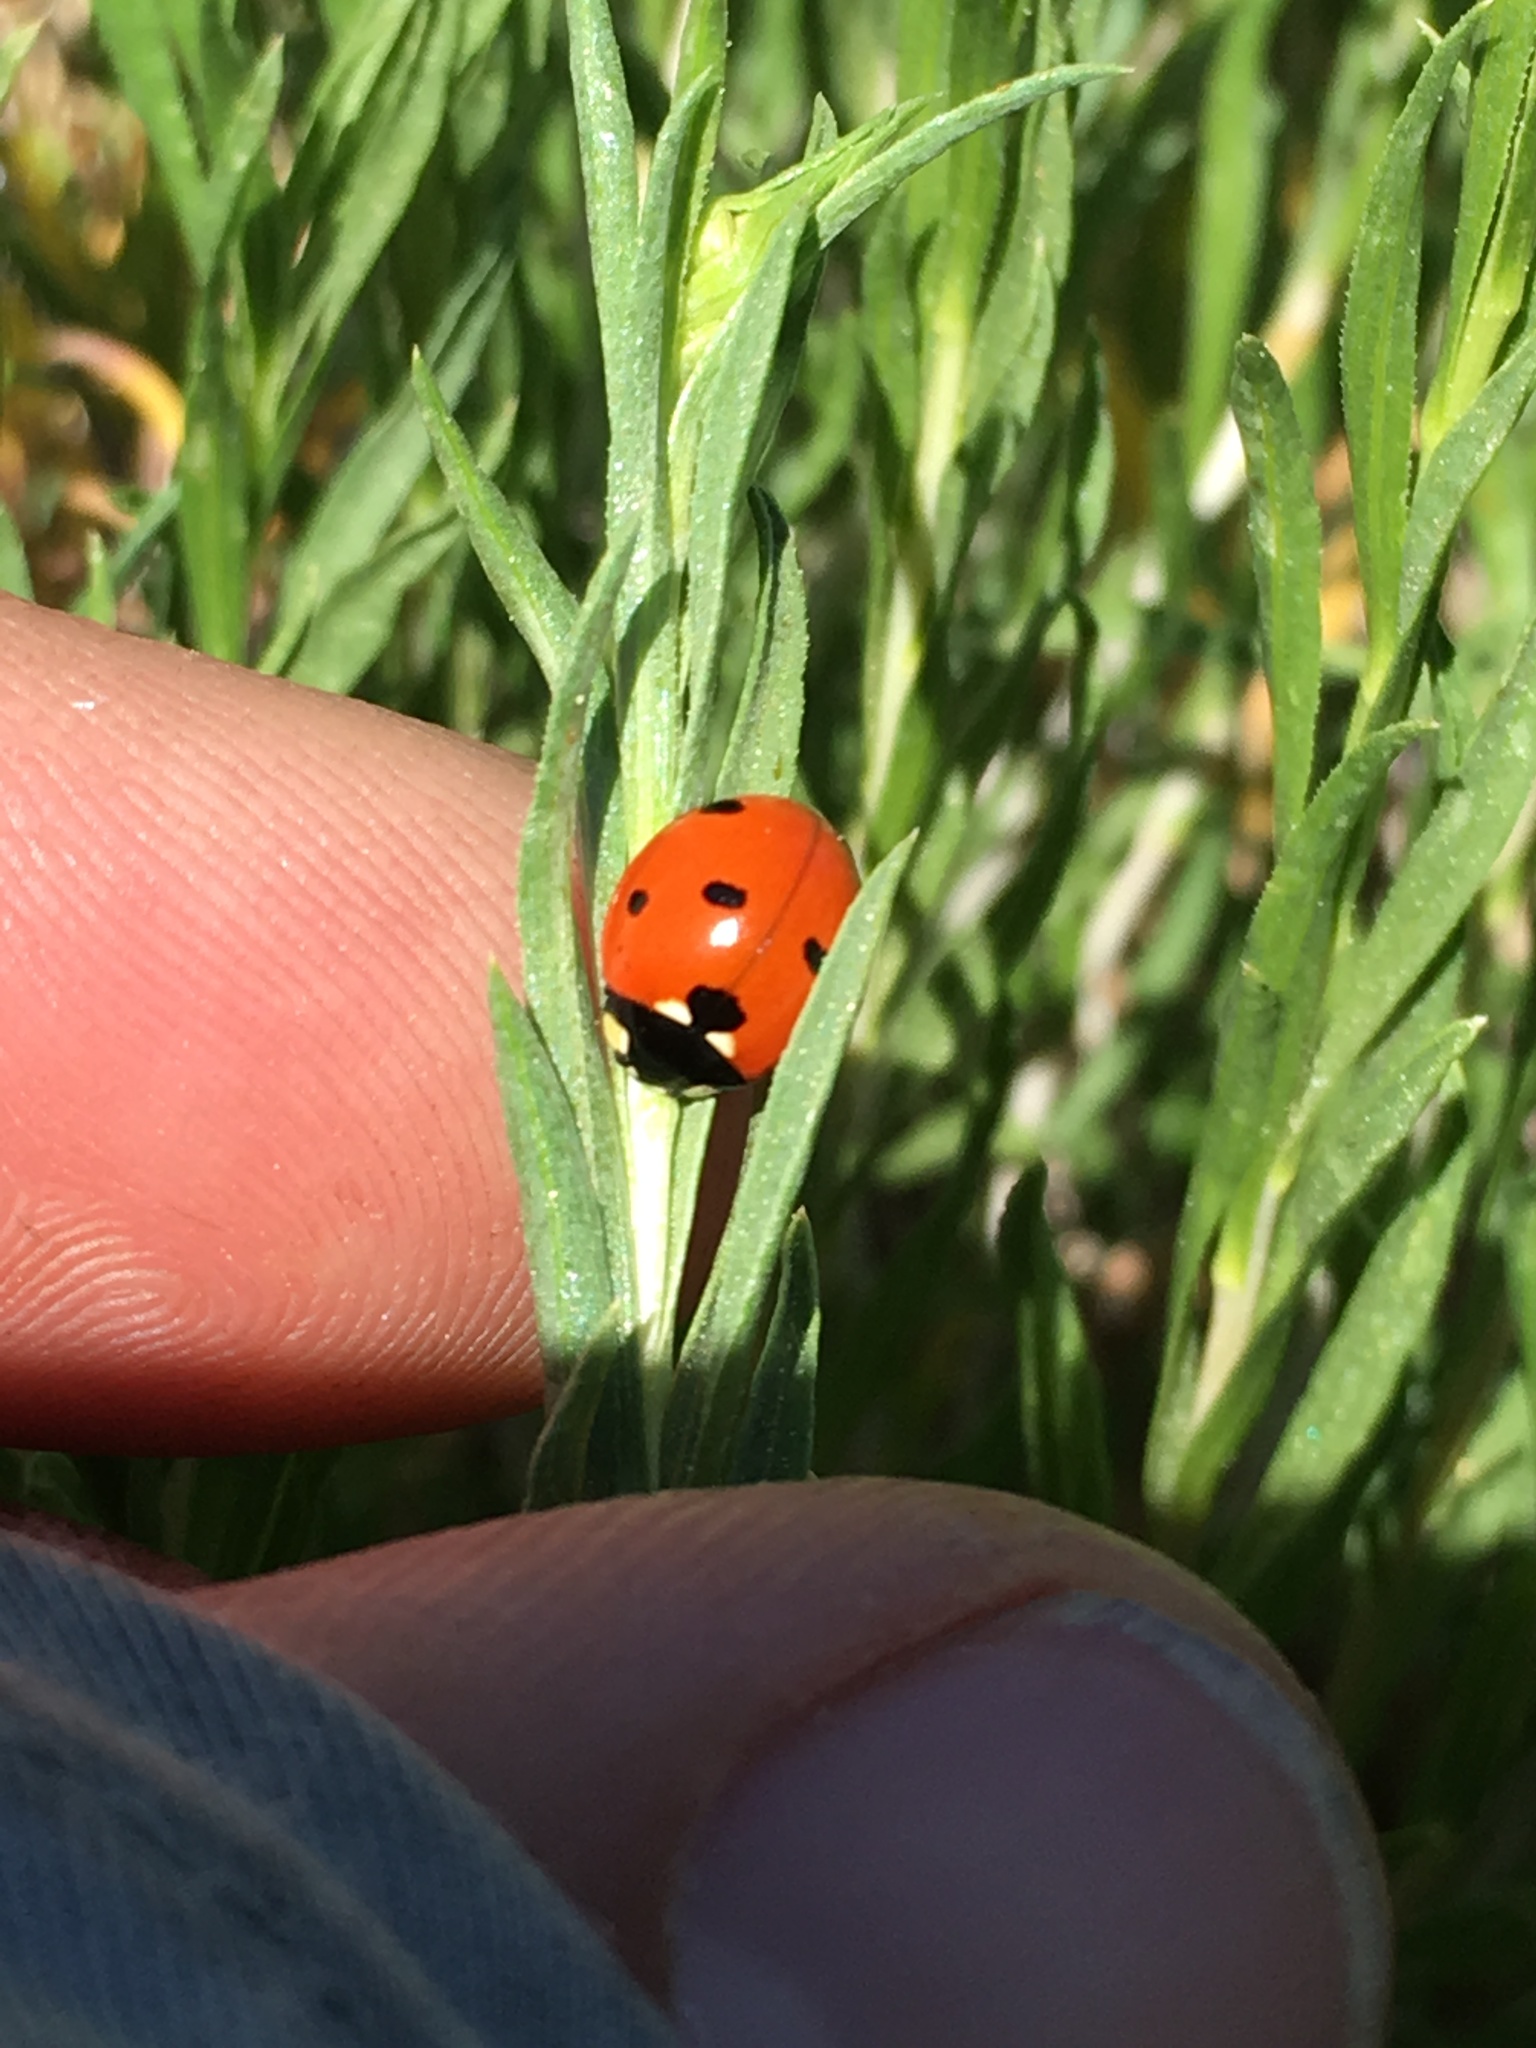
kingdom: Animalia
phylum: Arthropoda
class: Insecta
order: Coleoptera
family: Coccinellidae
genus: Coccinella
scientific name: Coccinella septempunctata
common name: Sevenspotted lady beetle
